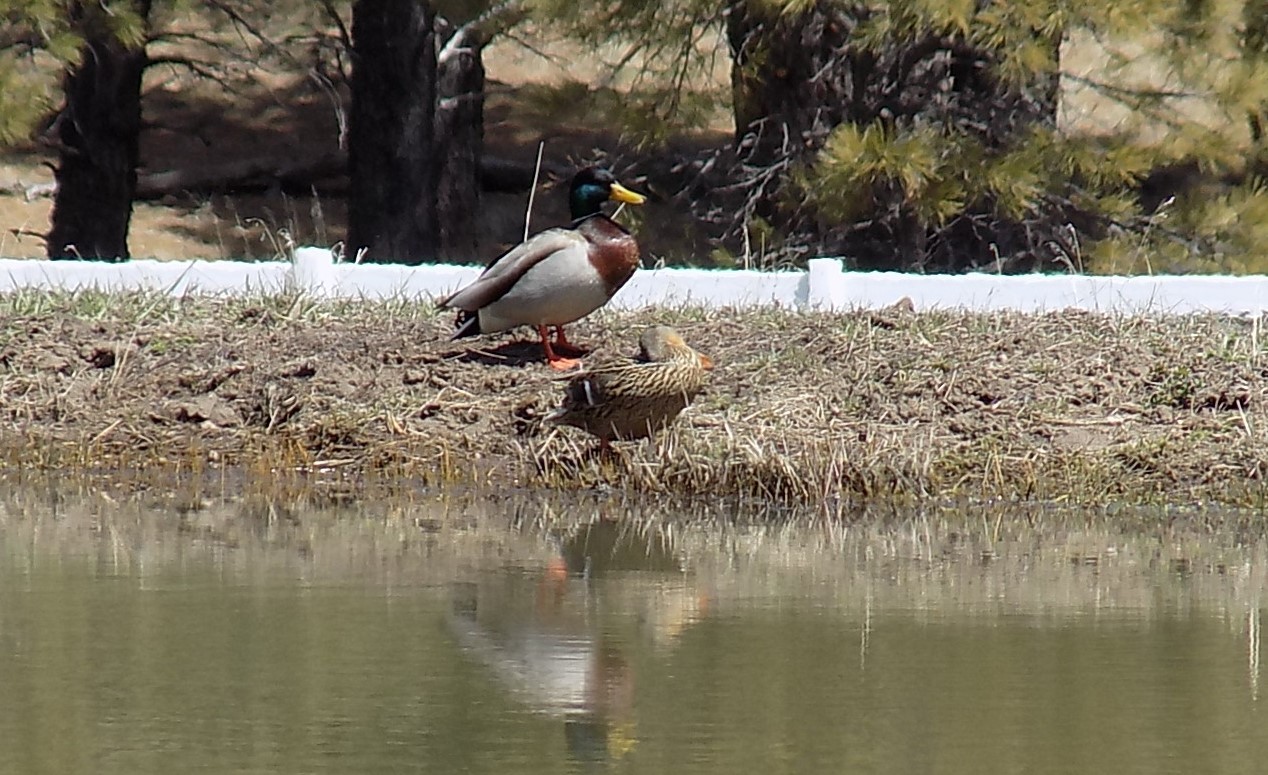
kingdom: Animalia
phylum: Chordata
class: Aves
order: Anseriformes
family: Anatidae
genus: Anas
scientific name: Anas platyrhynchos
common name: Mallard
